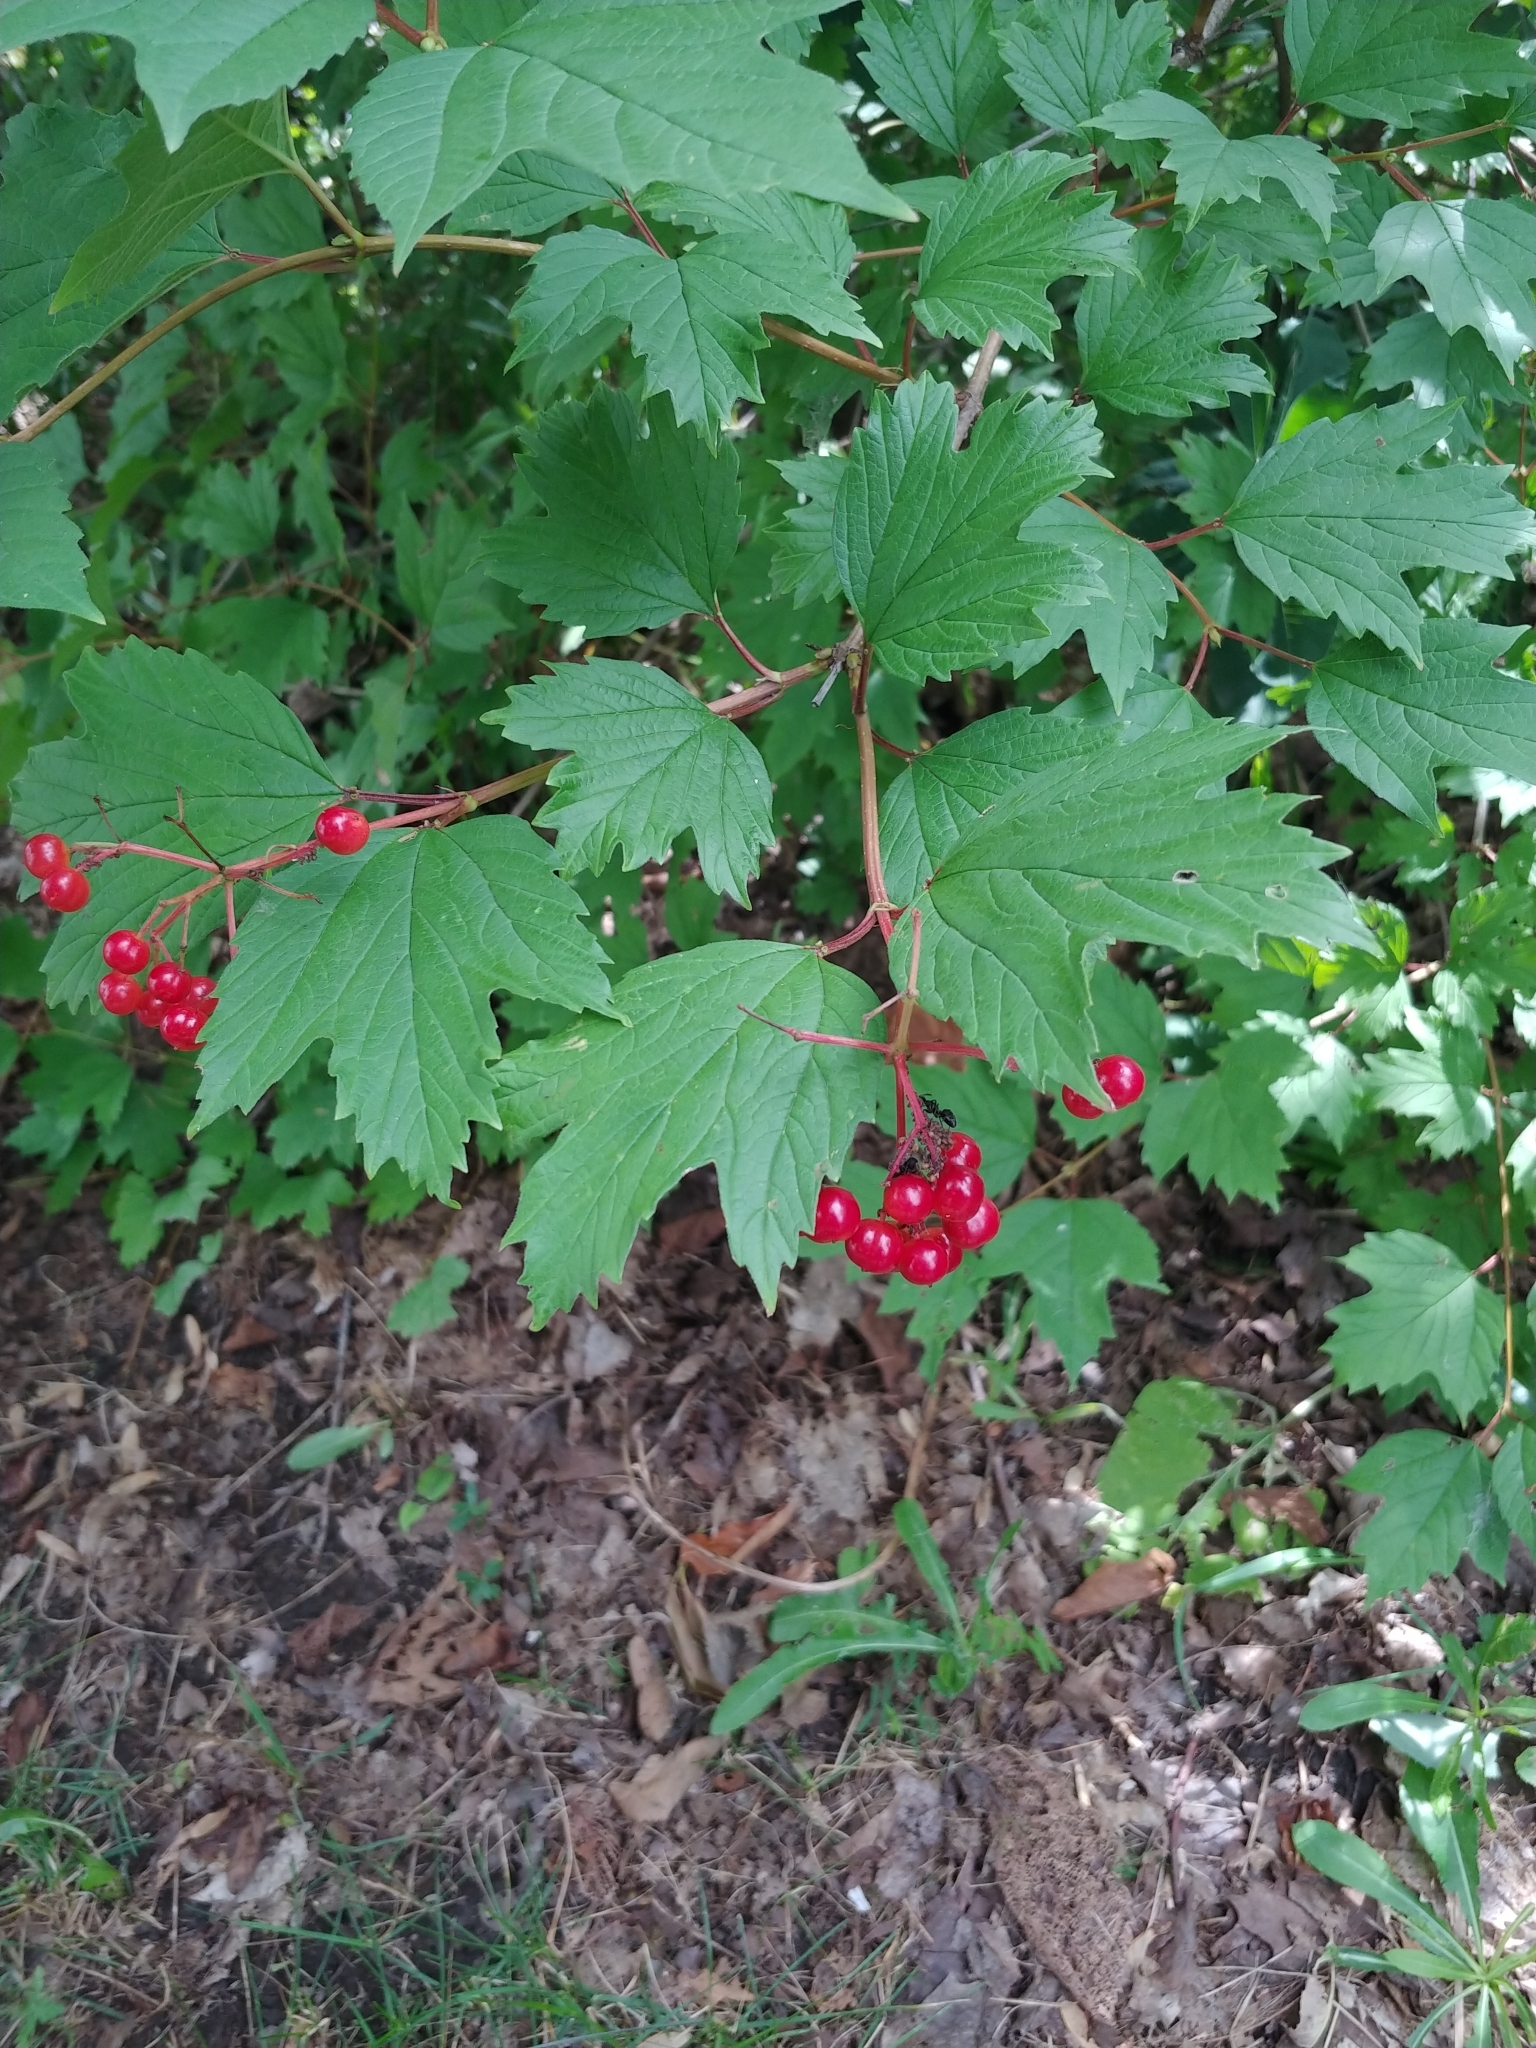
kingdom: Plantae
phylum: Tracheophyta
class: Magnoliopsida
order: Dipsacales
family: Viburnaceae
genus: Viburnum
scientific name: Viburnum acerifolium
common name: Dockmackie
